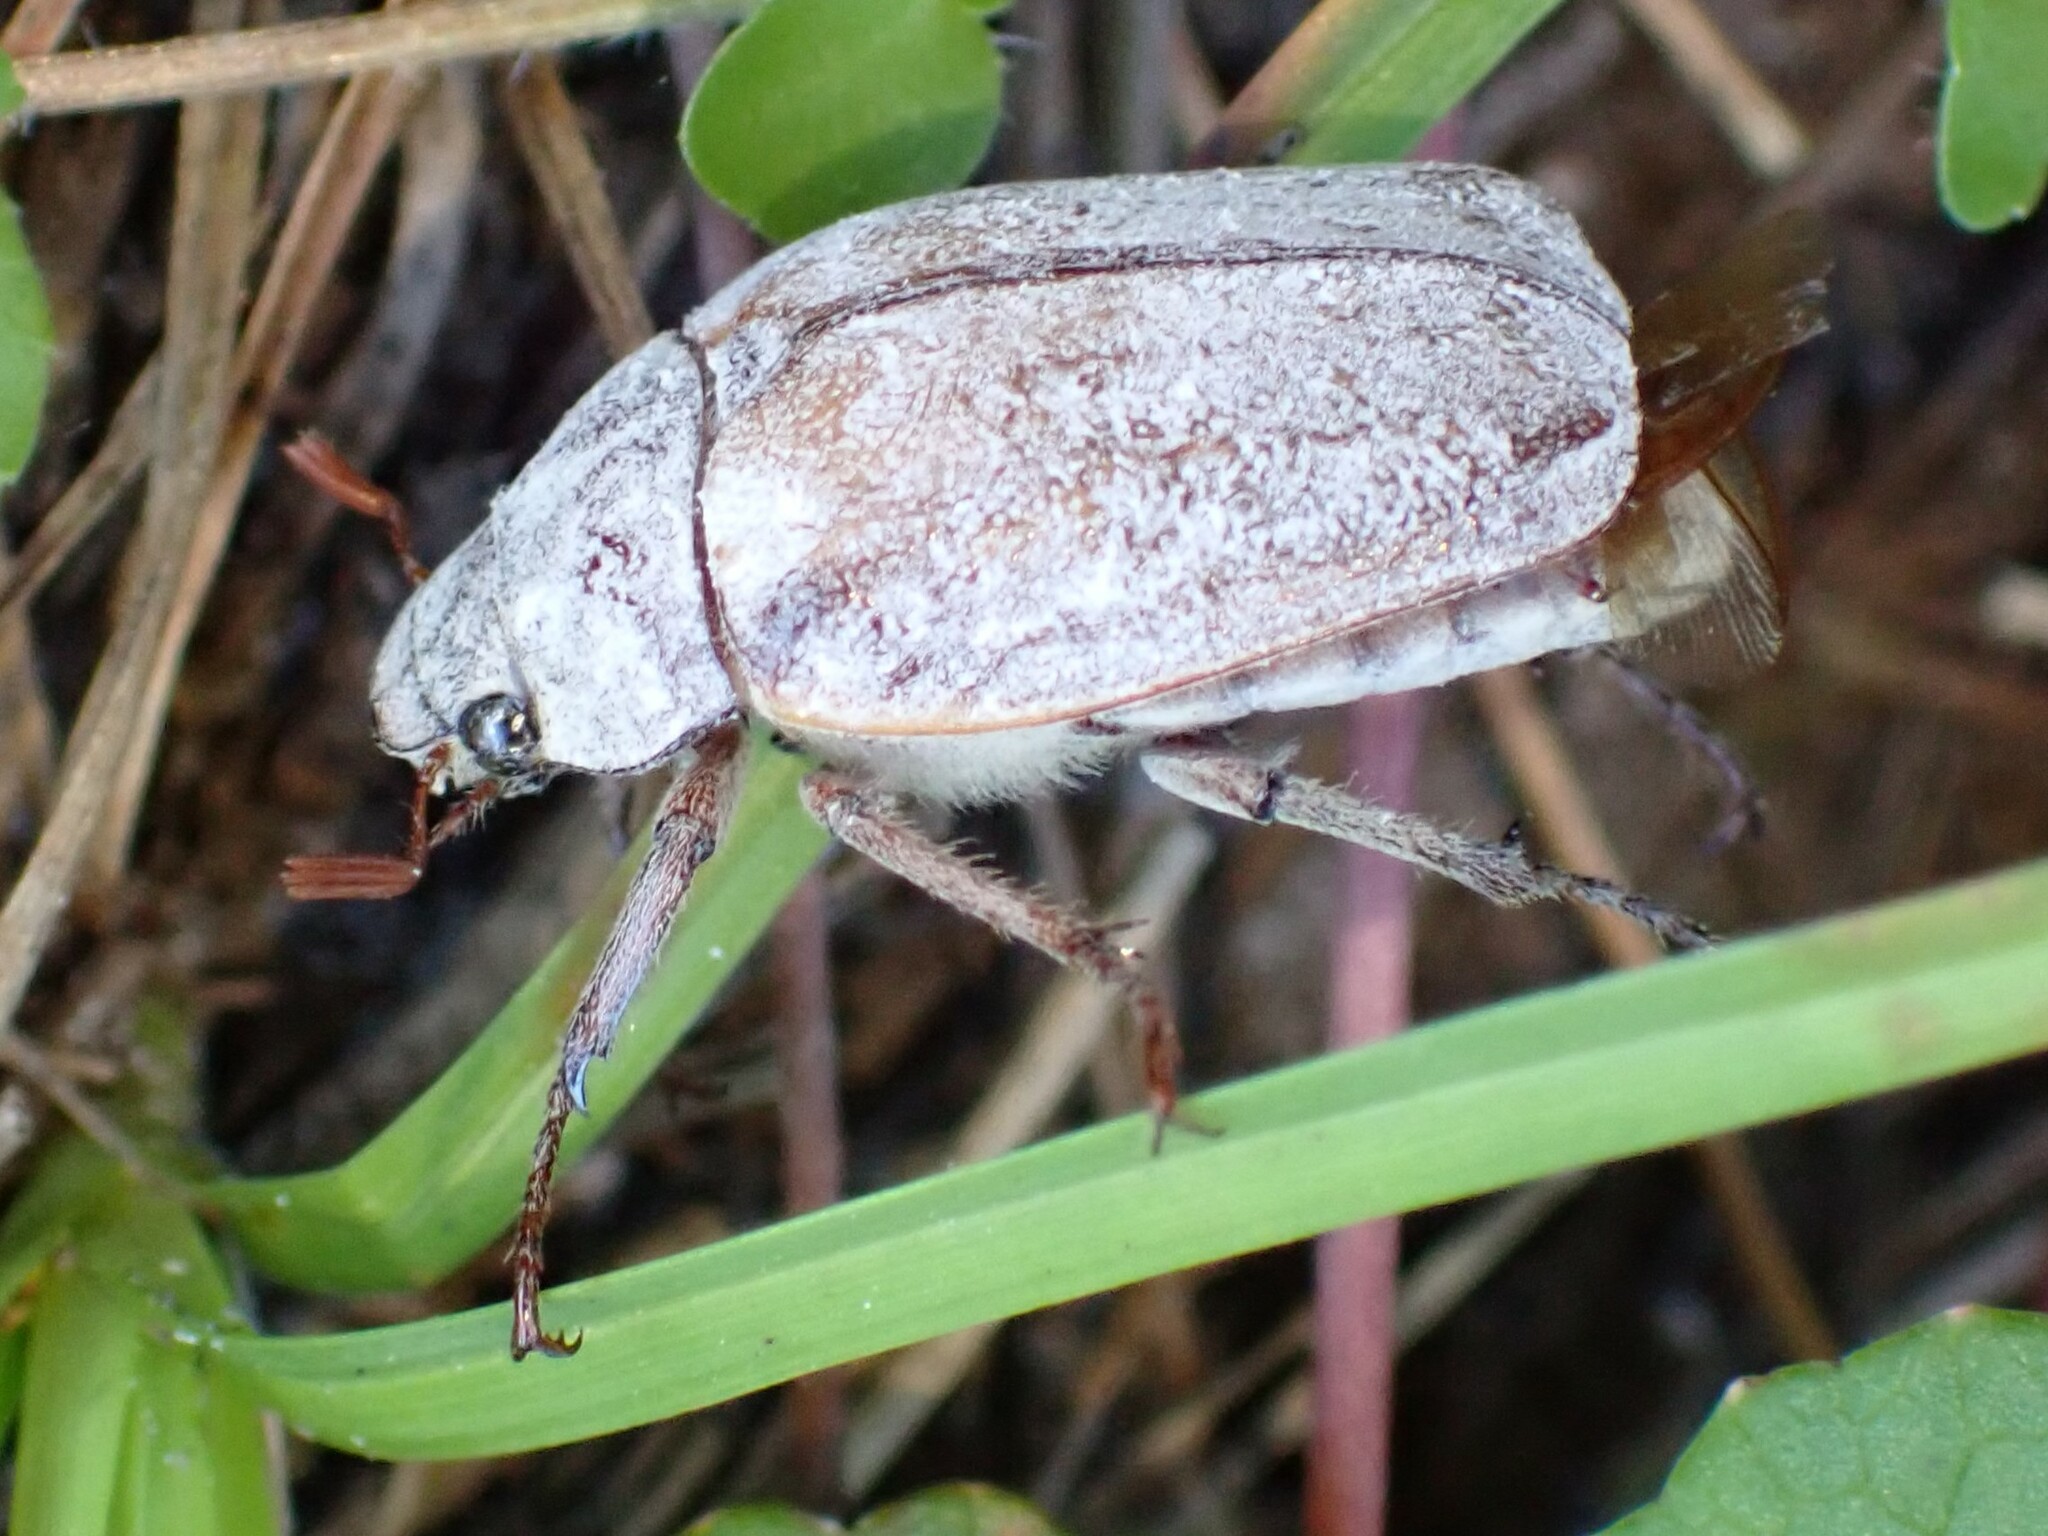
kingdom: Animalia
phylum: Arthropoda
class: Insecta
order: Coleoptera
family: Scarabaeidae
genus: Pegylis
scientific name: Pegylis sommeri
